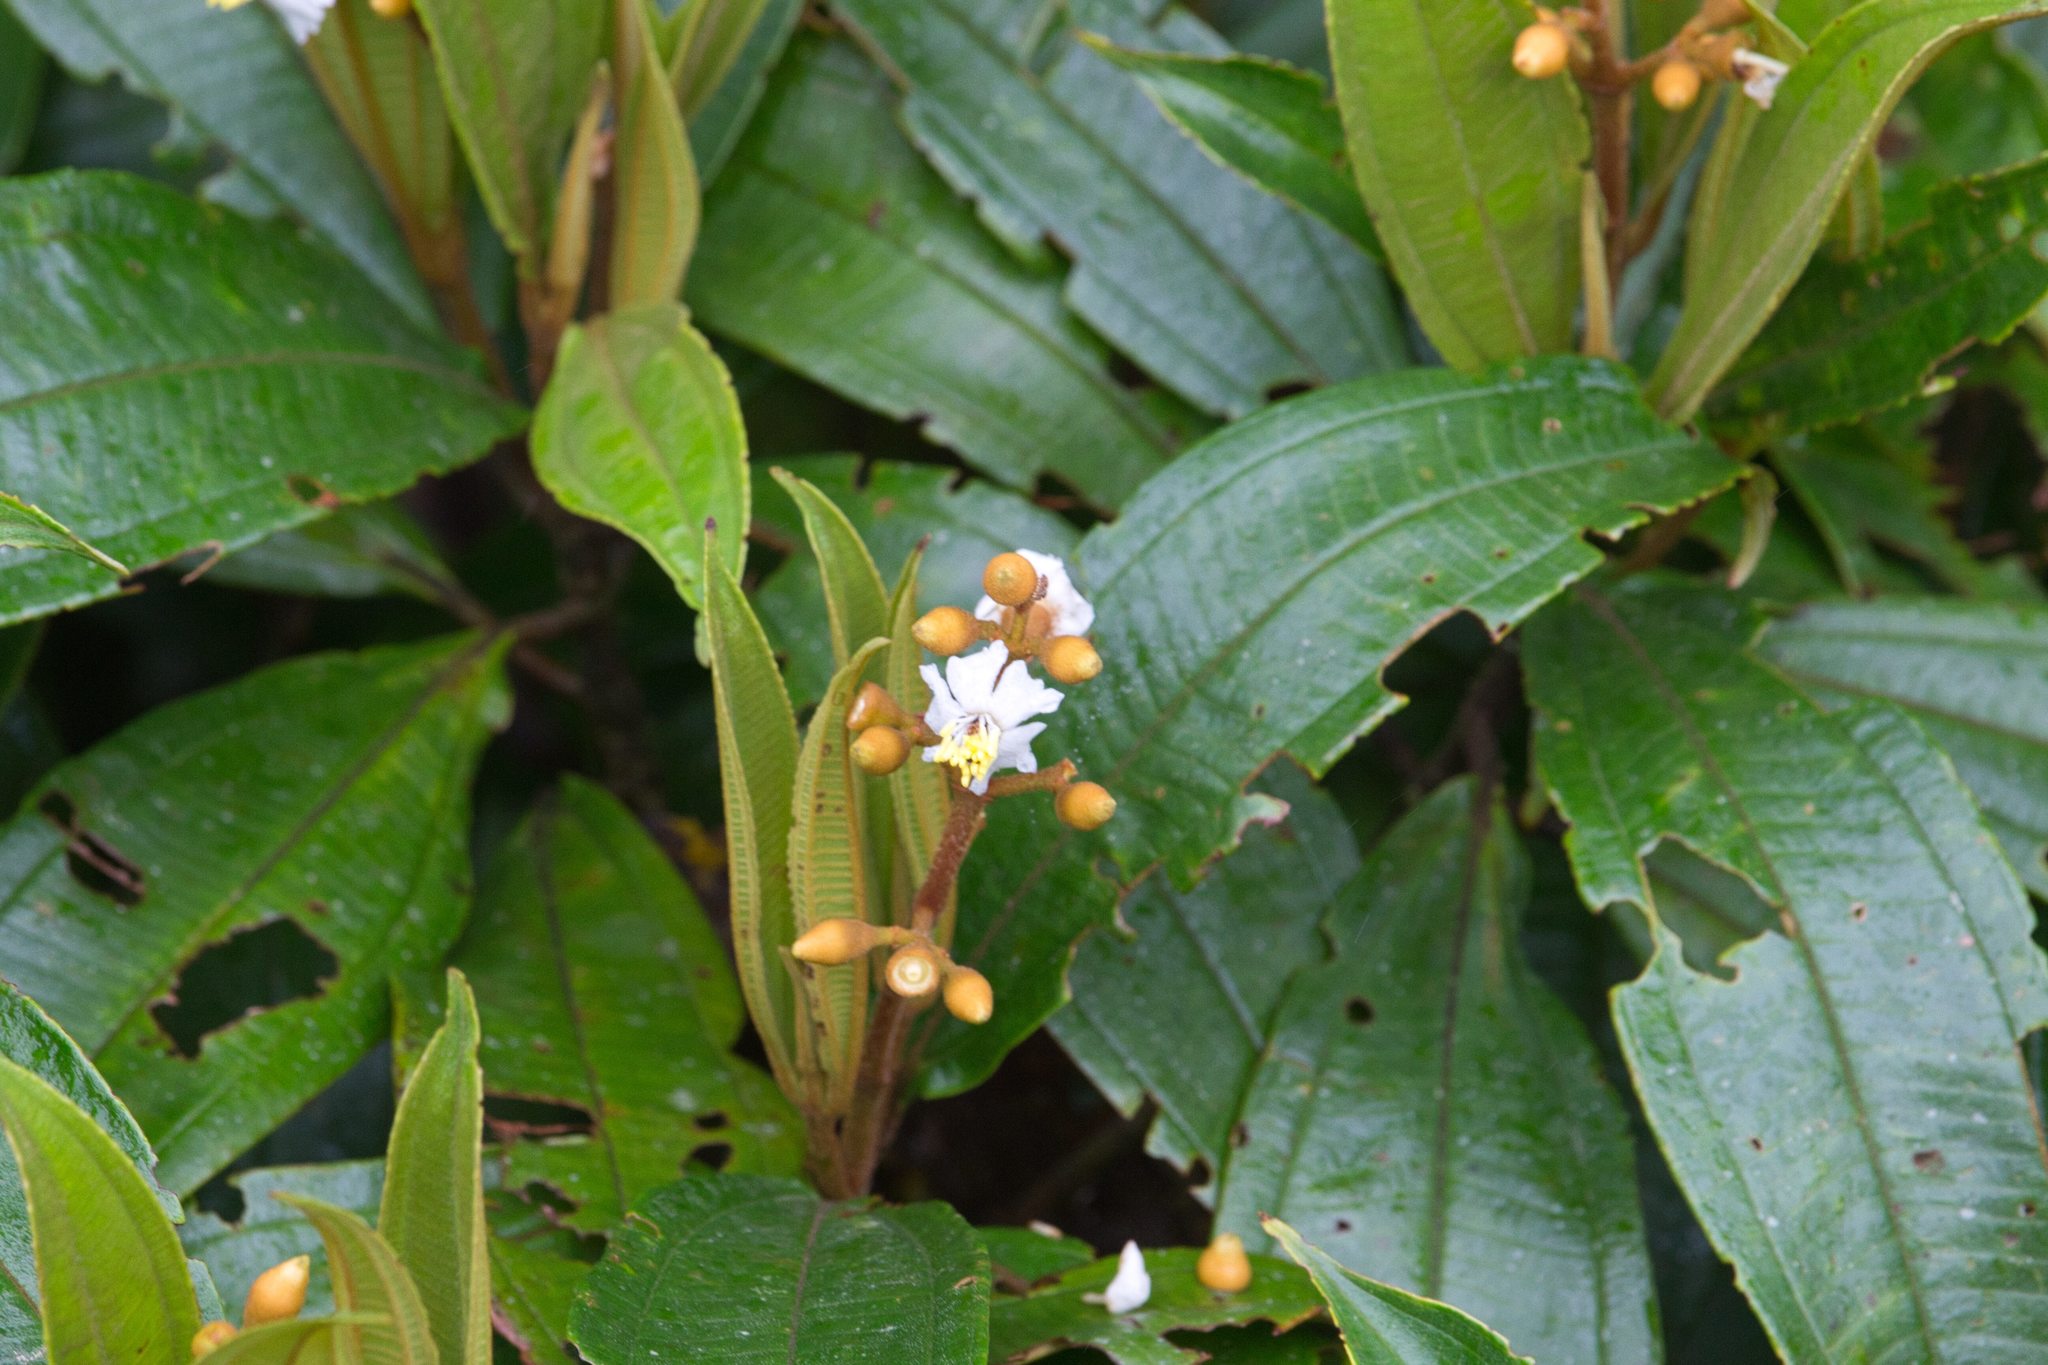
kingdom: Plantae
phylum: Tracheophyta
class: Magnoliopsida
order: Myrtales
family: Melastomataceae
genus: Miconia
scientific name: Miconia conorufescens
